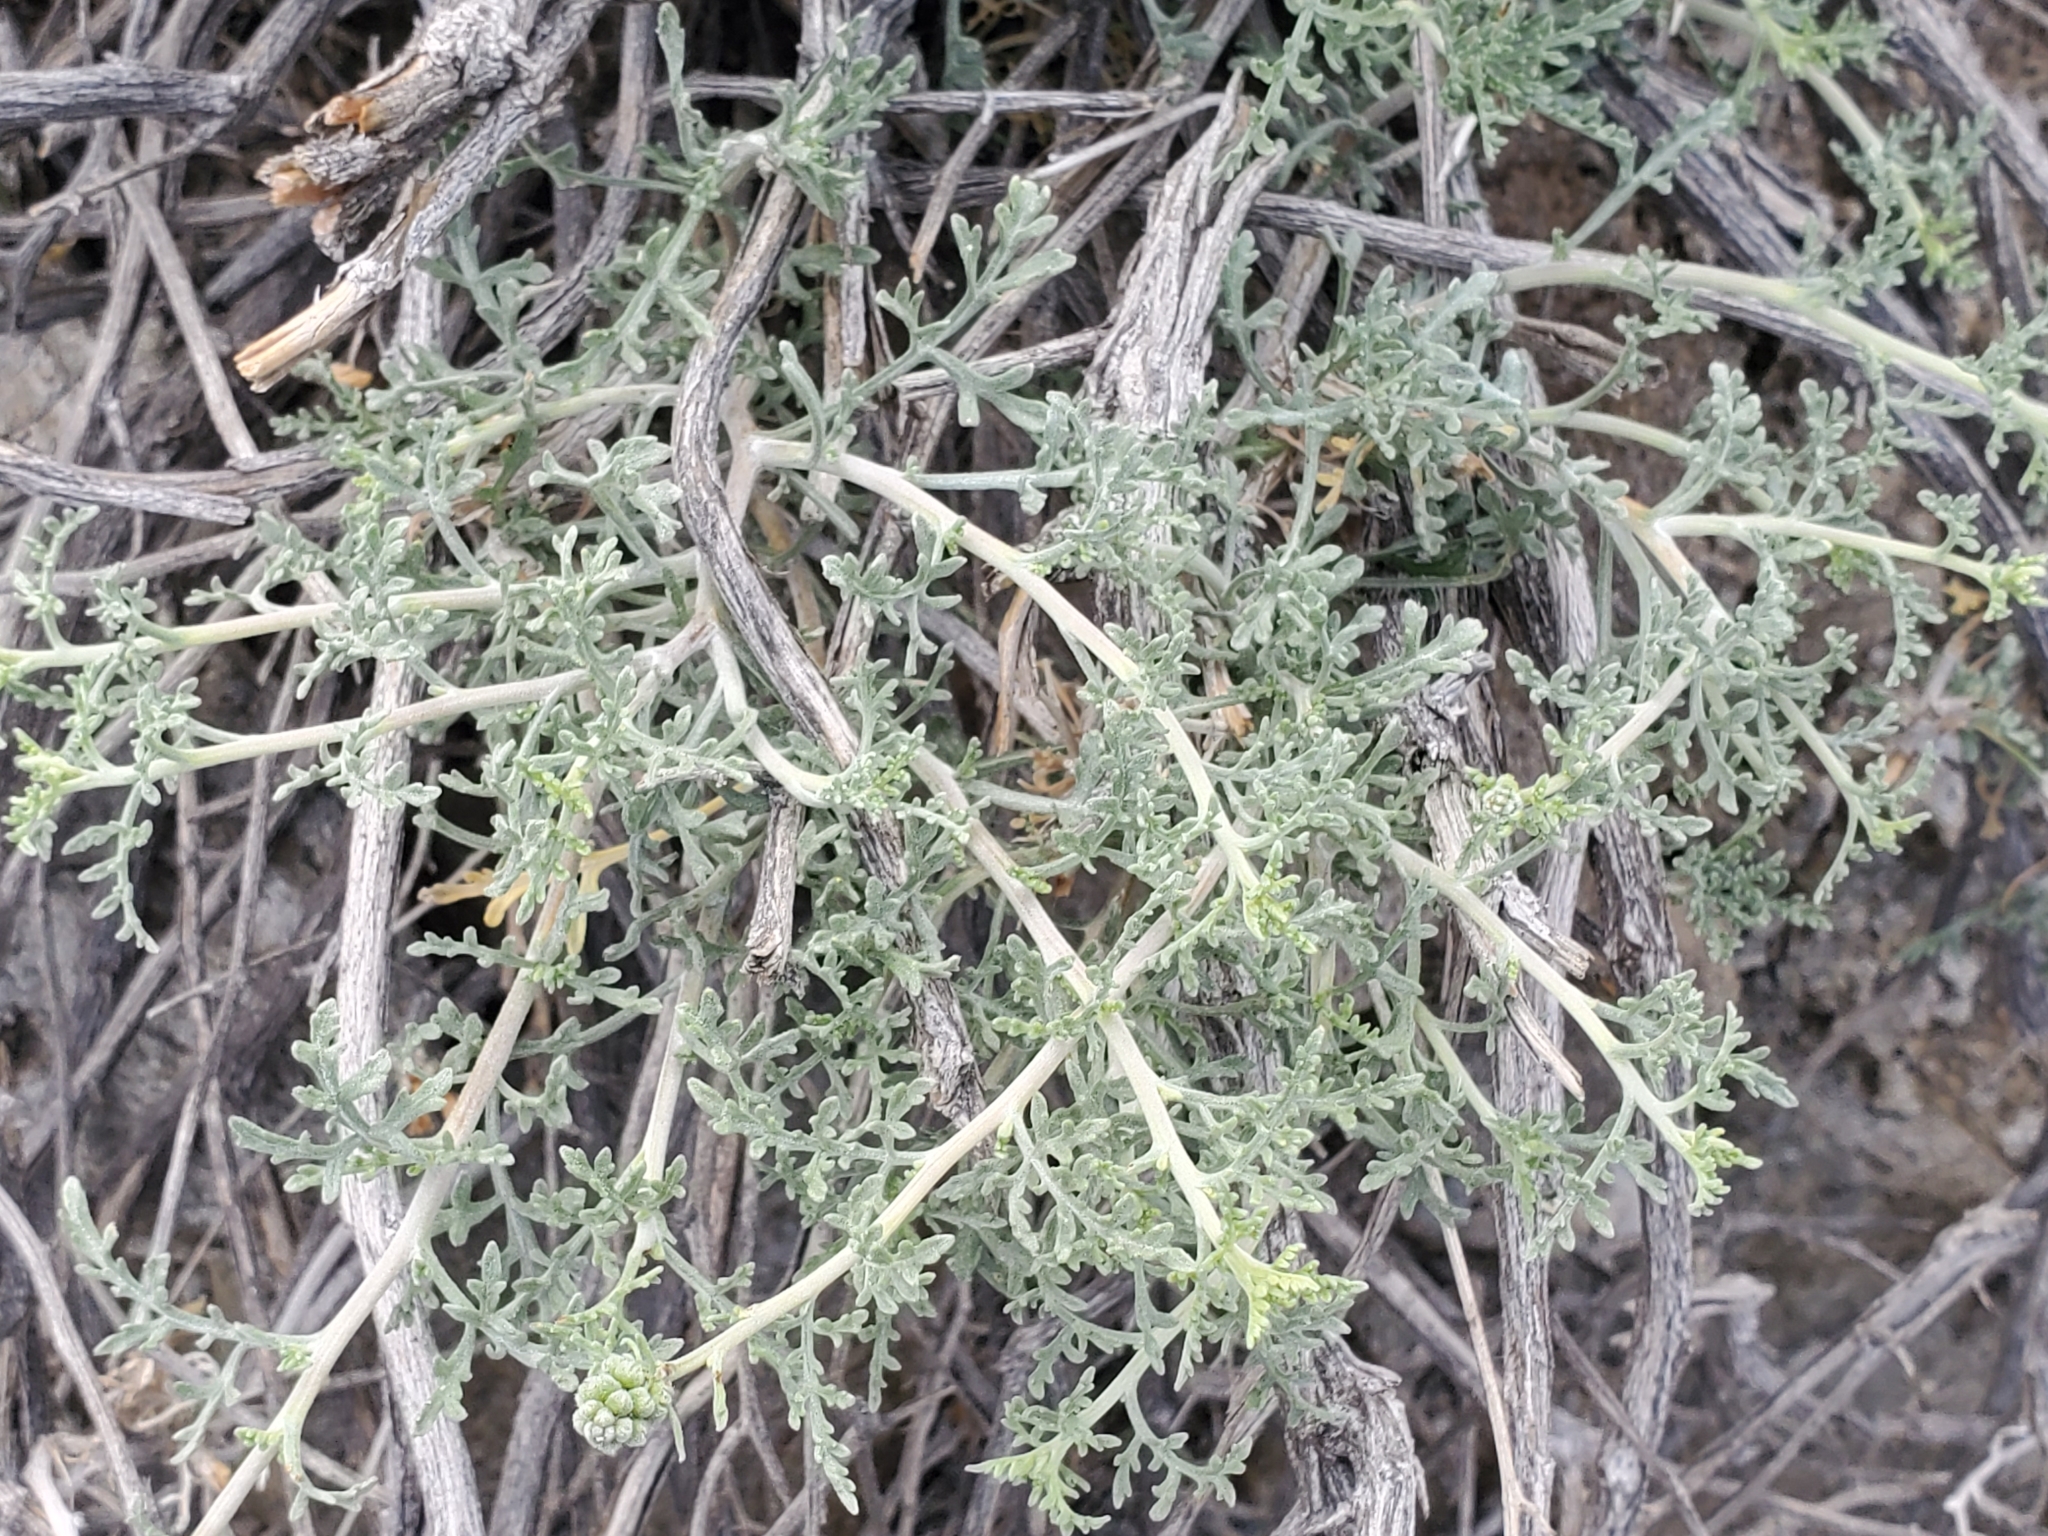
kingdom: Plantae
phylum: Tracheophyta
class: Magnoliopsida
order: Asterales
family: Asteraceae
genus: Ambrosia
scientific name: Ambrosia dumosa
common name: Bur-sage
